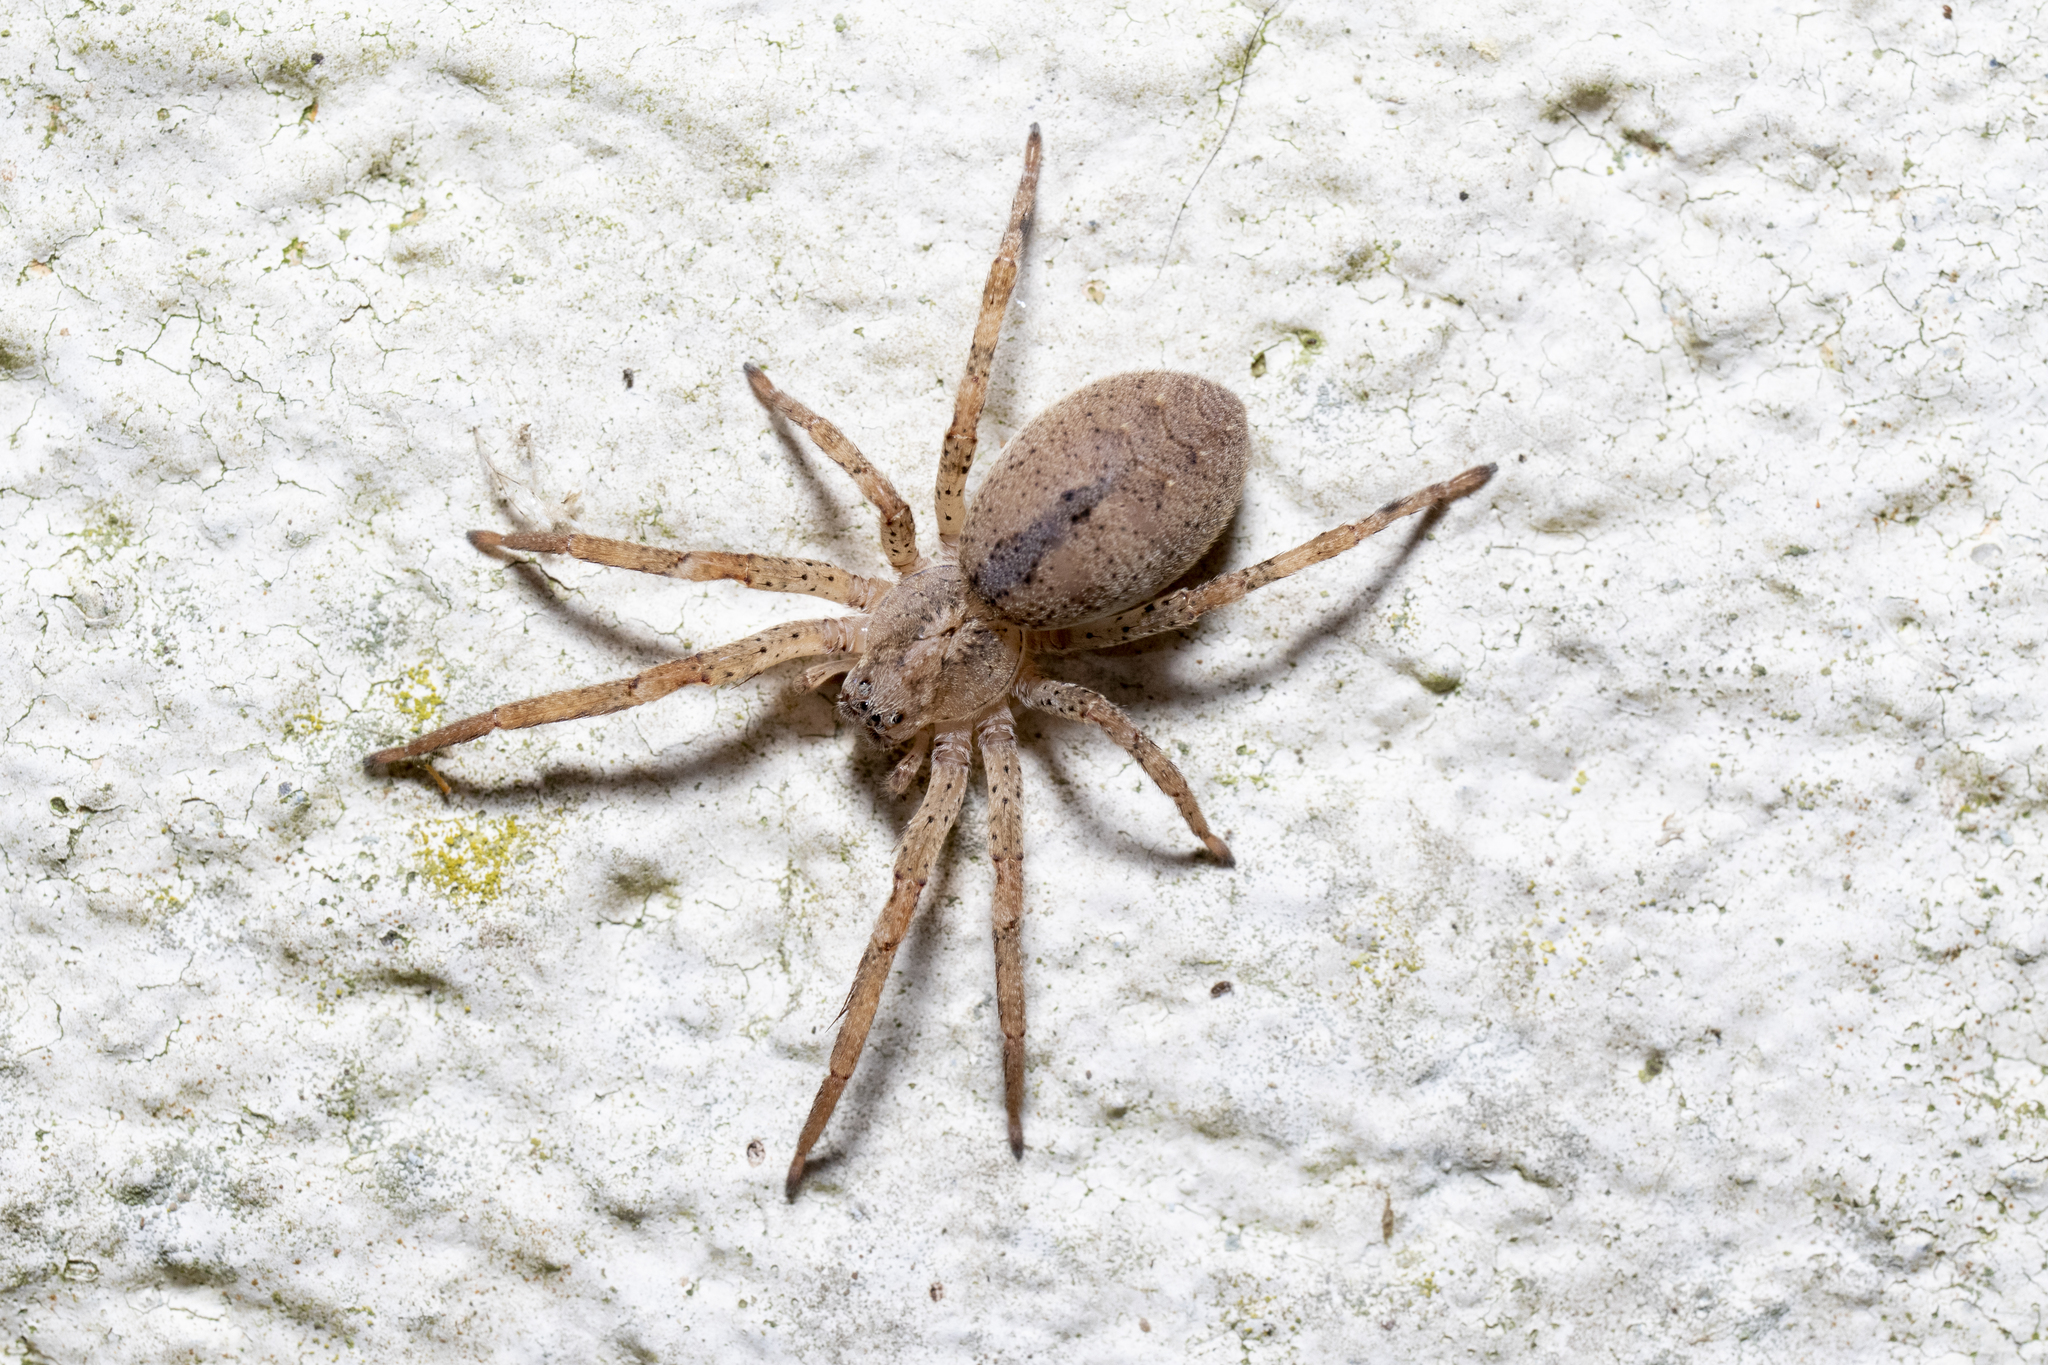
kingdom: Animalia
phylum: Arthropoda
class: Arachnida
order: Araneae
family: Zoropsidae
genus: Zoropsis
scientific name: Zoropsis spinimana
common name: Zoropsid spider
